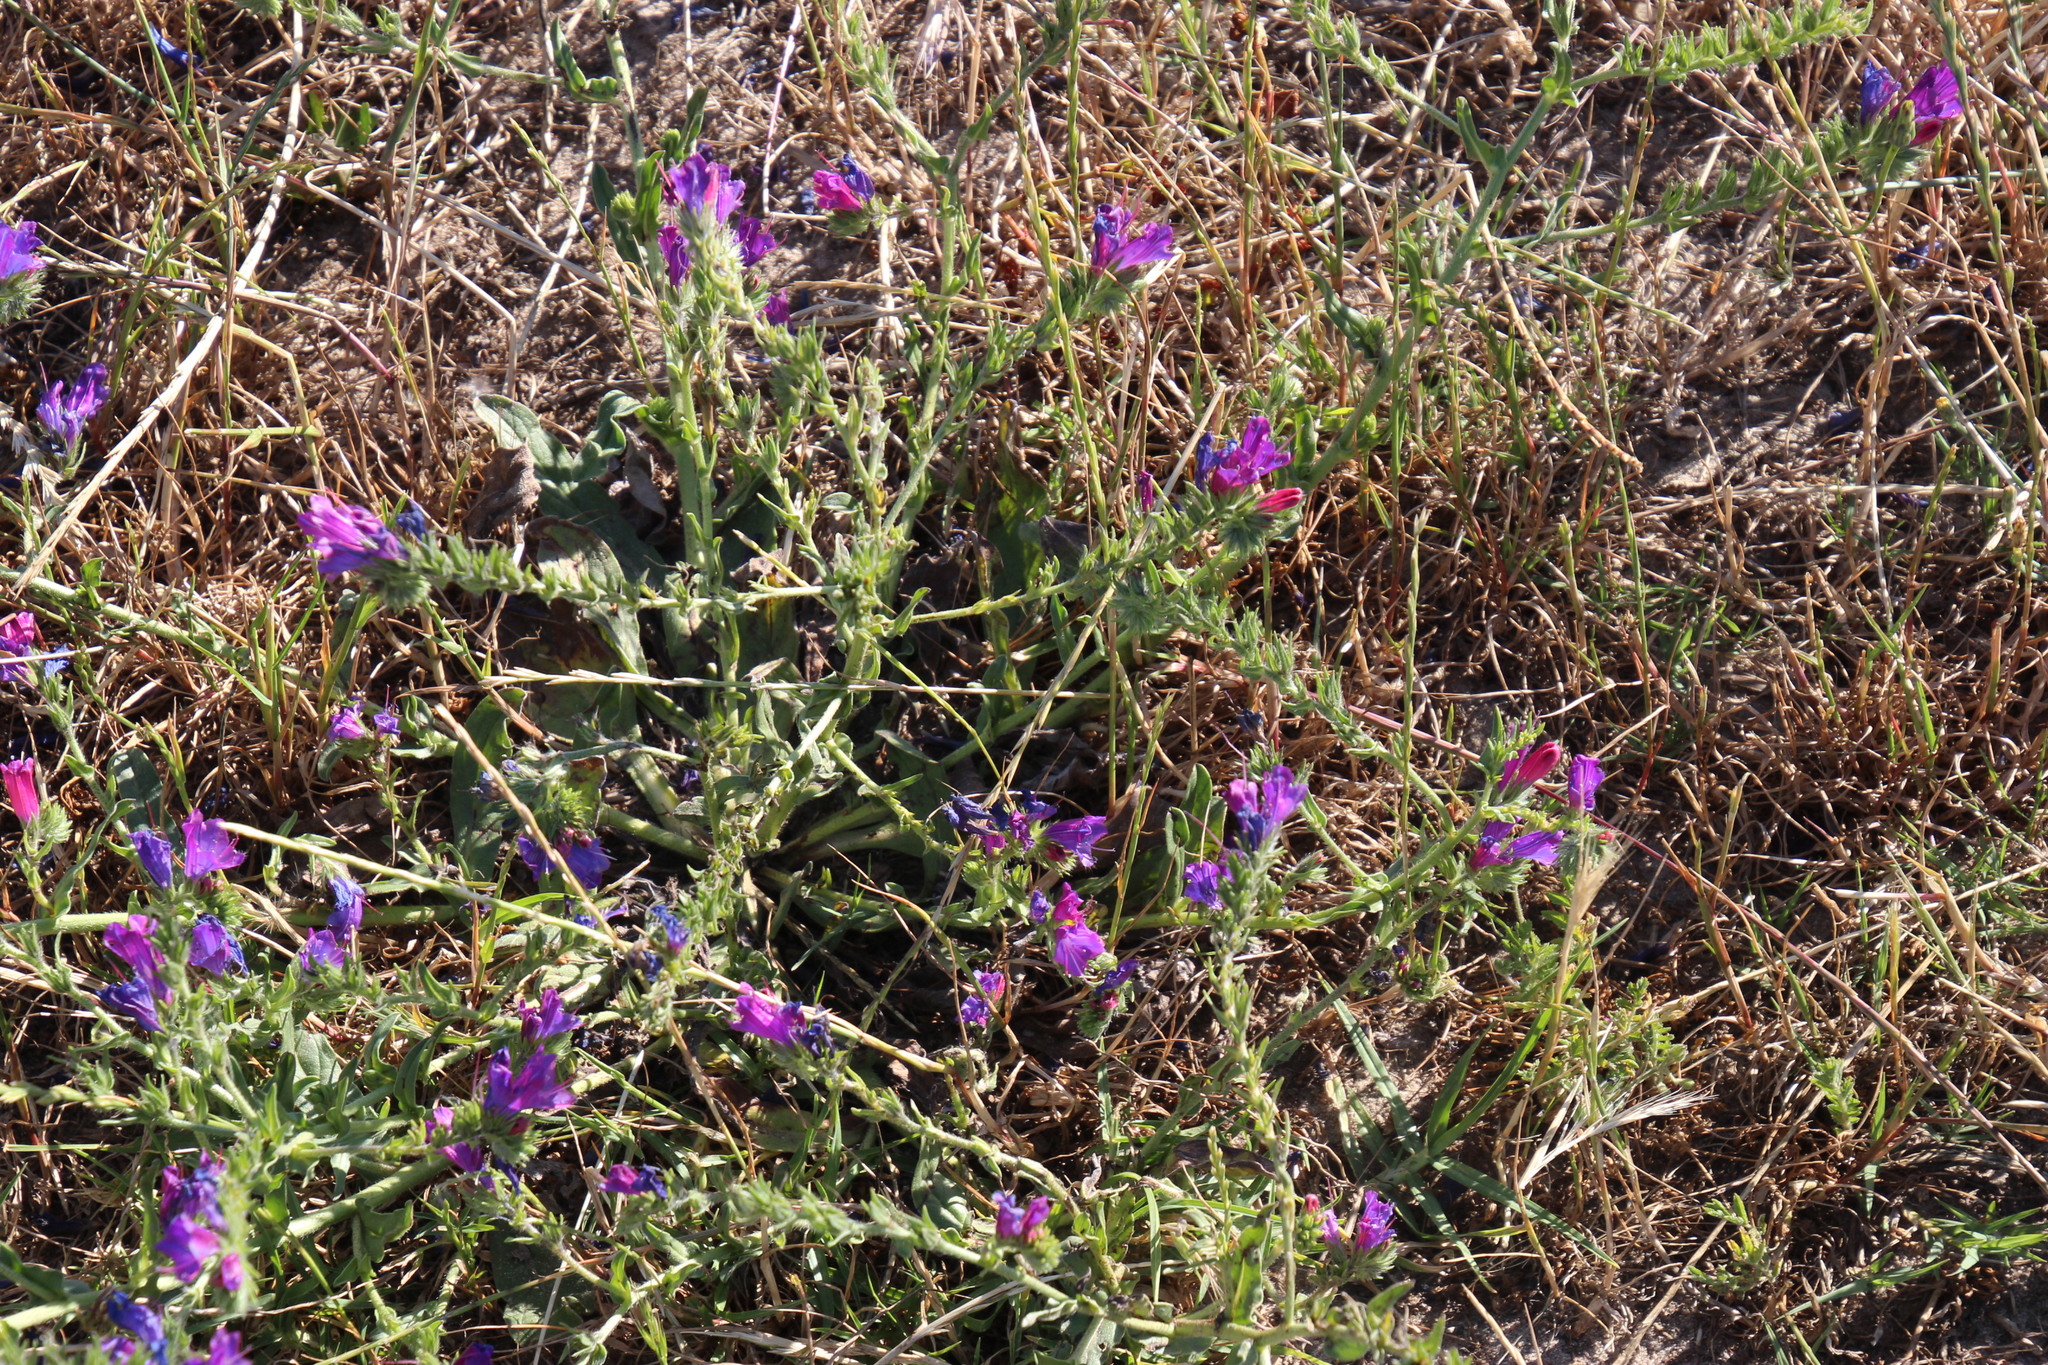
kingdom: Plantae
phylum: Tracheophyta
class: Magnoliopsida
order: Boraginales
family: Boraginaceae
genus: Echium
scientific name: Echium plantagineum
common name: Purple viper's-bugloss
